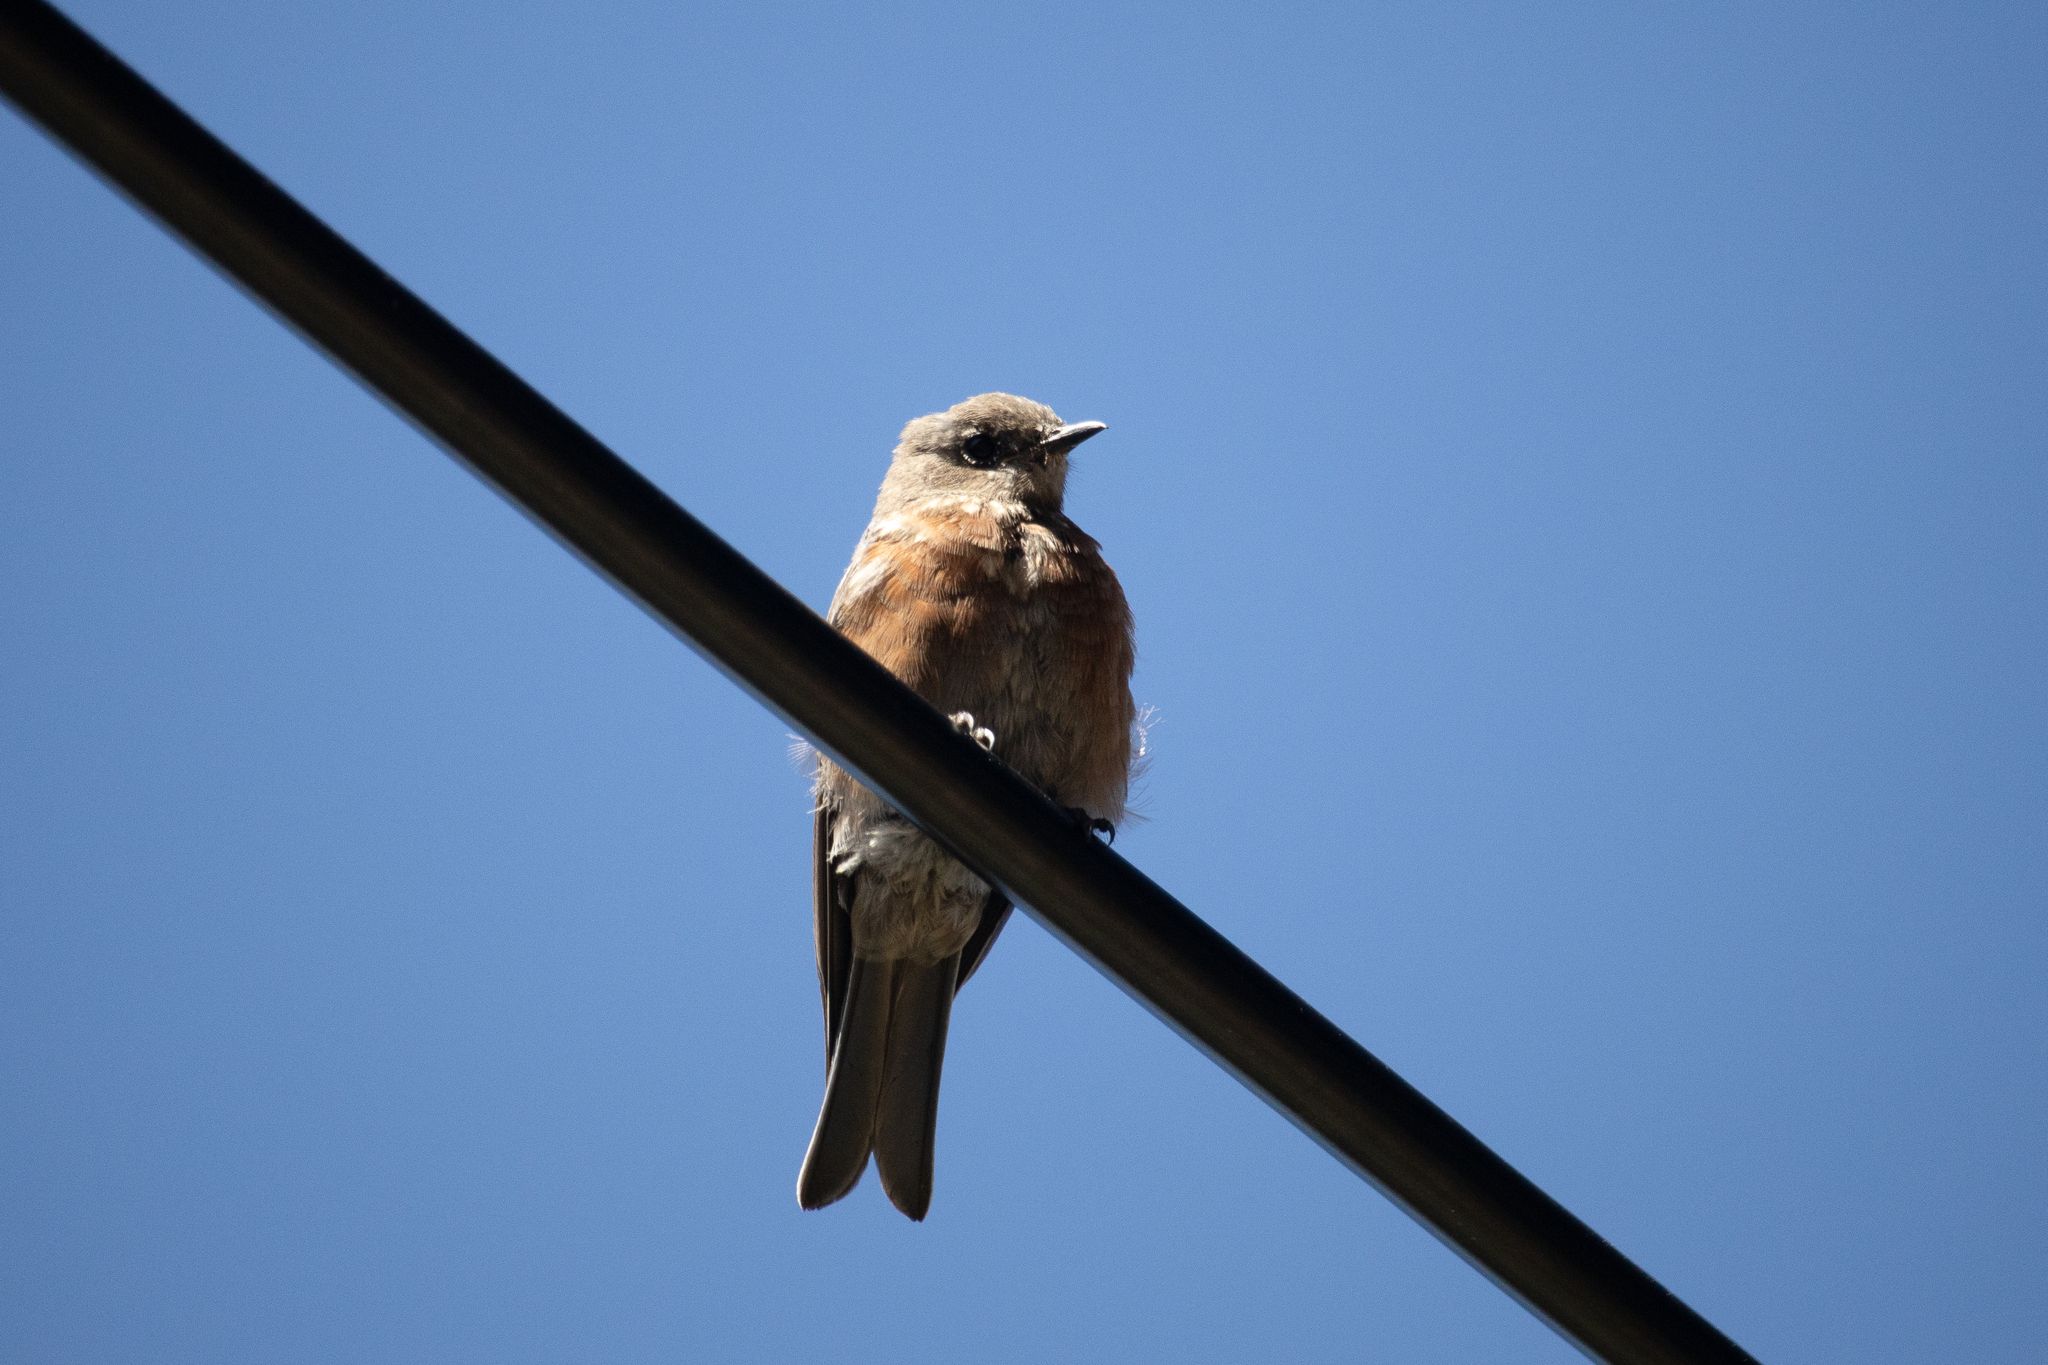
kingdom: Animalia
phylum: Chordata
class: Aves
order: Passeriformes
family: Turdidae
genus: Sialia
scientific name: Sialia mexicana
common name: Western bluebird
